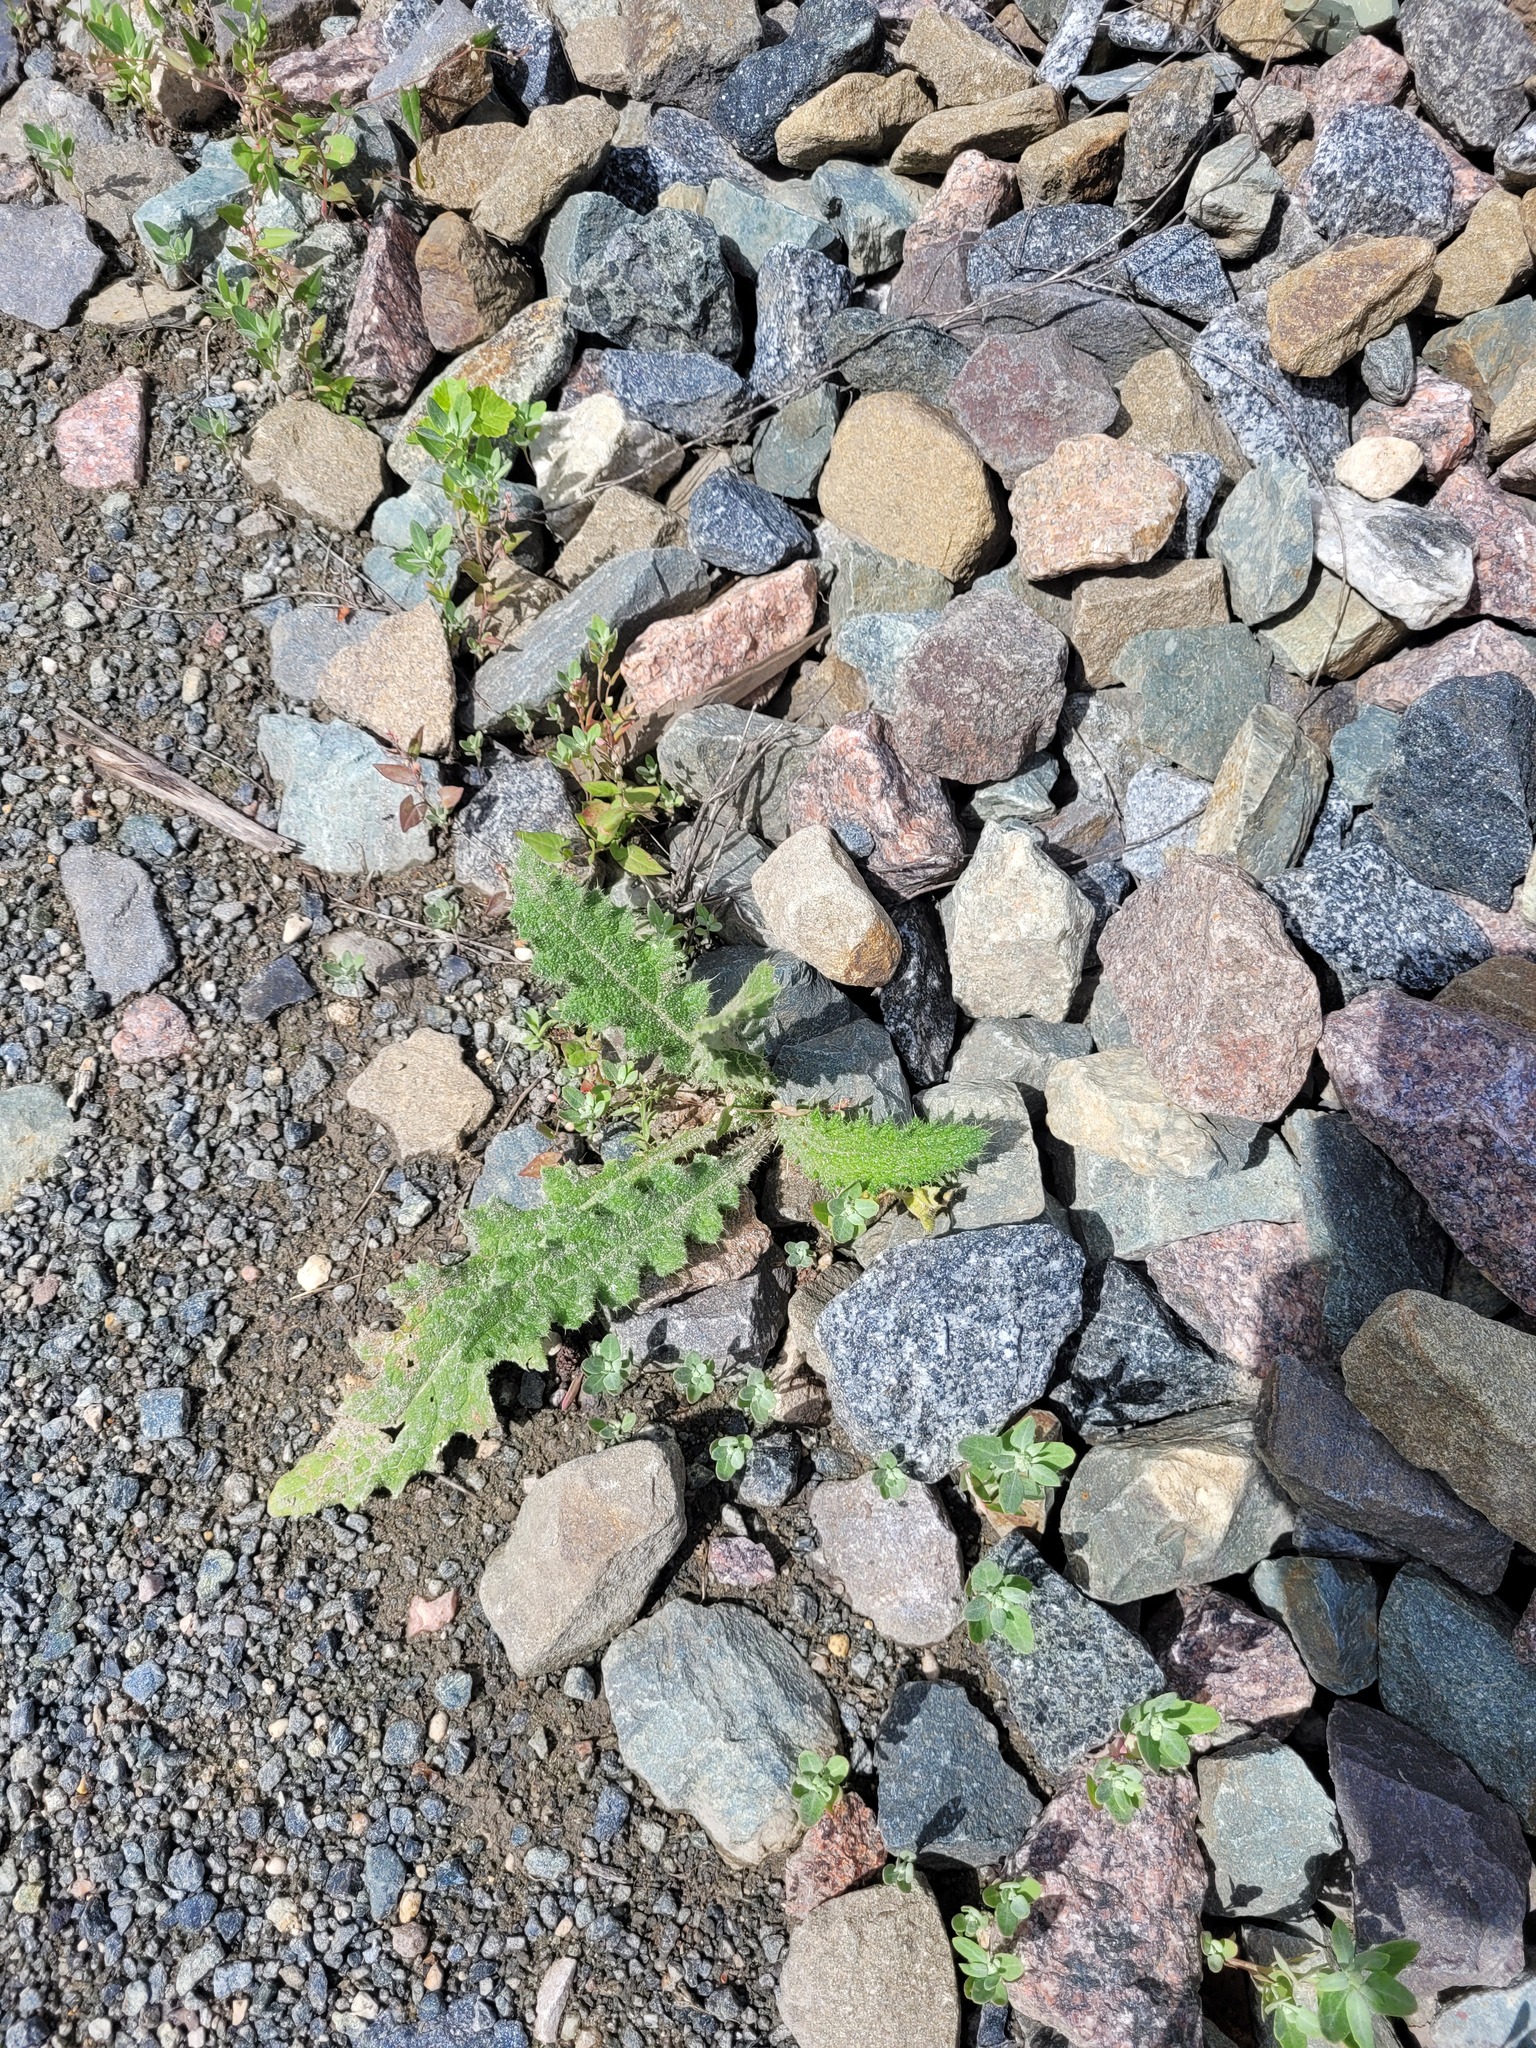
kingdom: Plantae
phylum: Tracheophyta
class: Magnoliopsida
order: Asterales
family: Asteraceae
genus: Cirsium
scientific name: Cirsium vulgare
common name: Bull thistle
